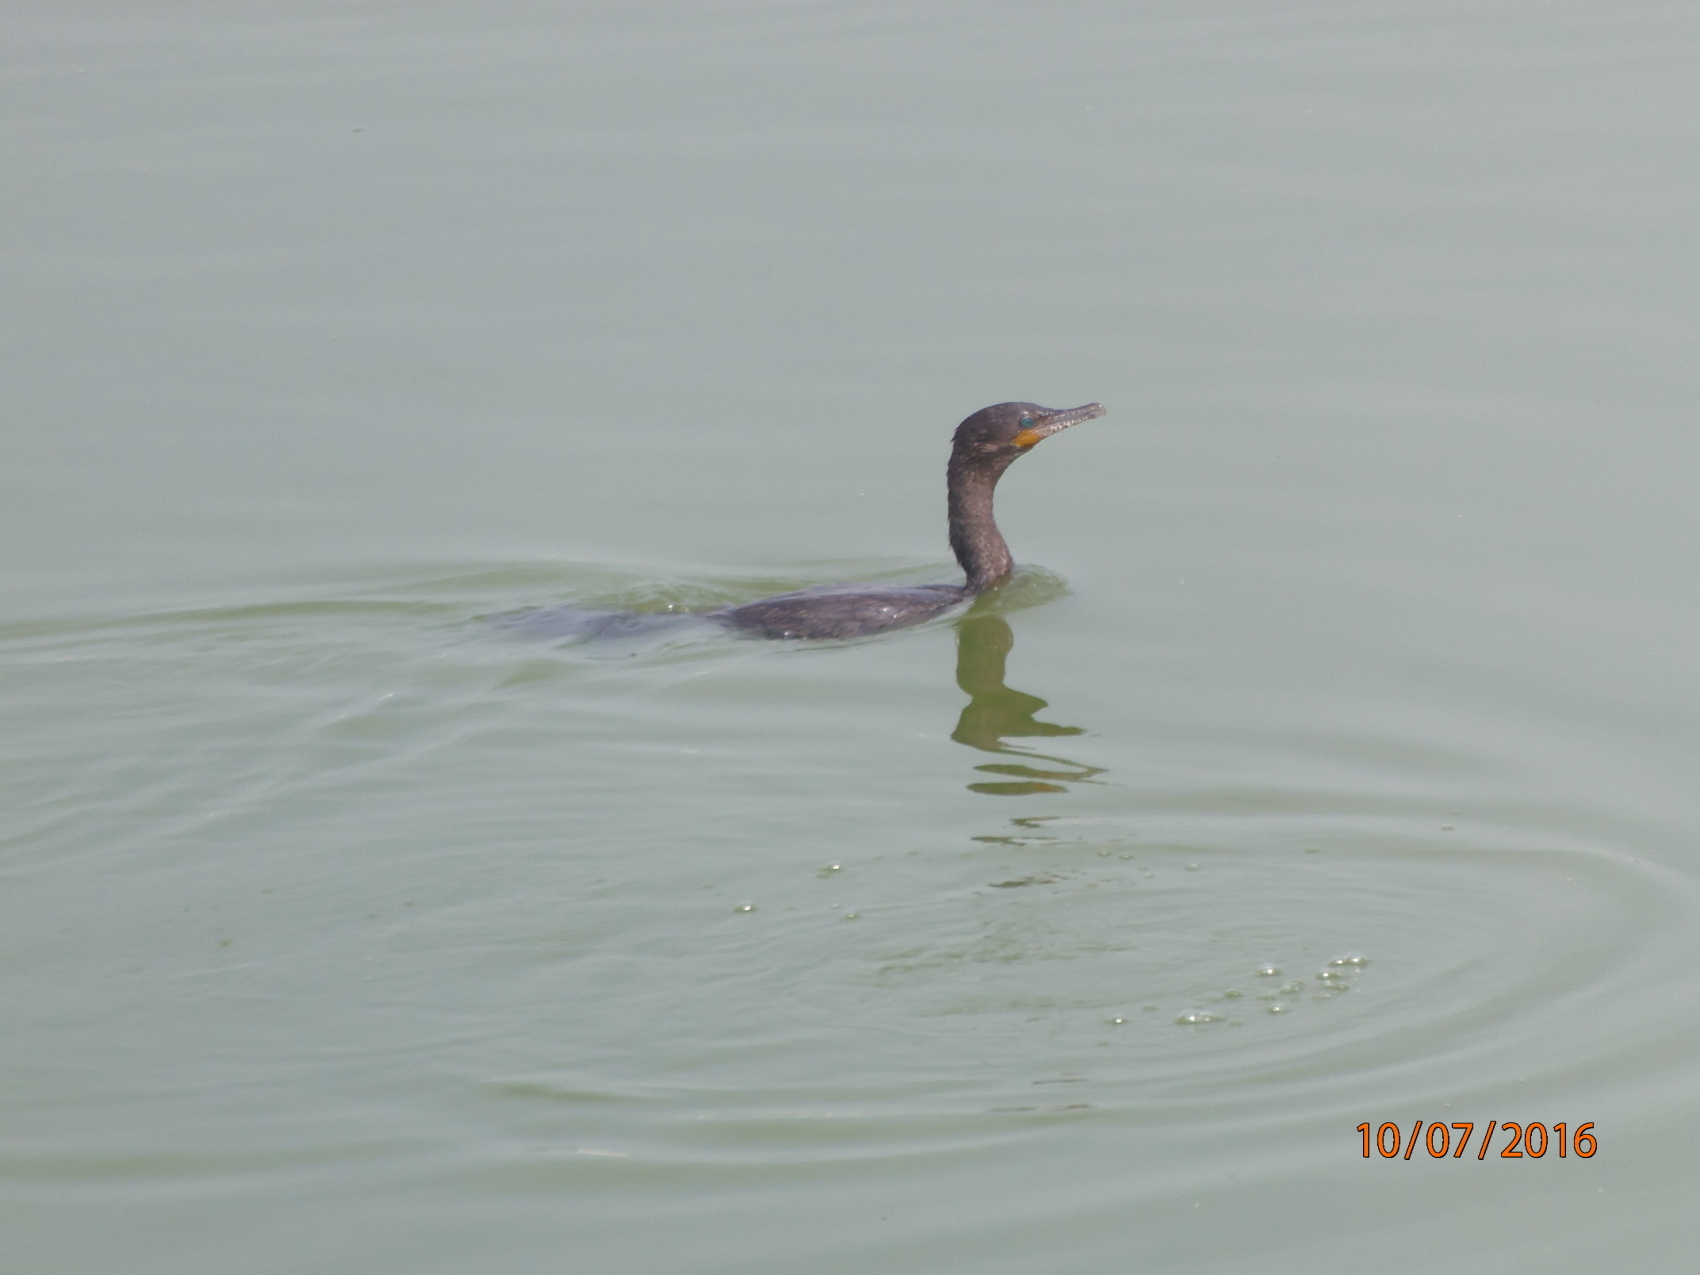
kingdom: Animalia
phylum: Chordata
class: Aves
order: Suliformes
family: Phalacrocoracidae
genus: Phalacrocorax
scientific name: Phalacrocorax brasilianus
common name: Neotropic cormorant
